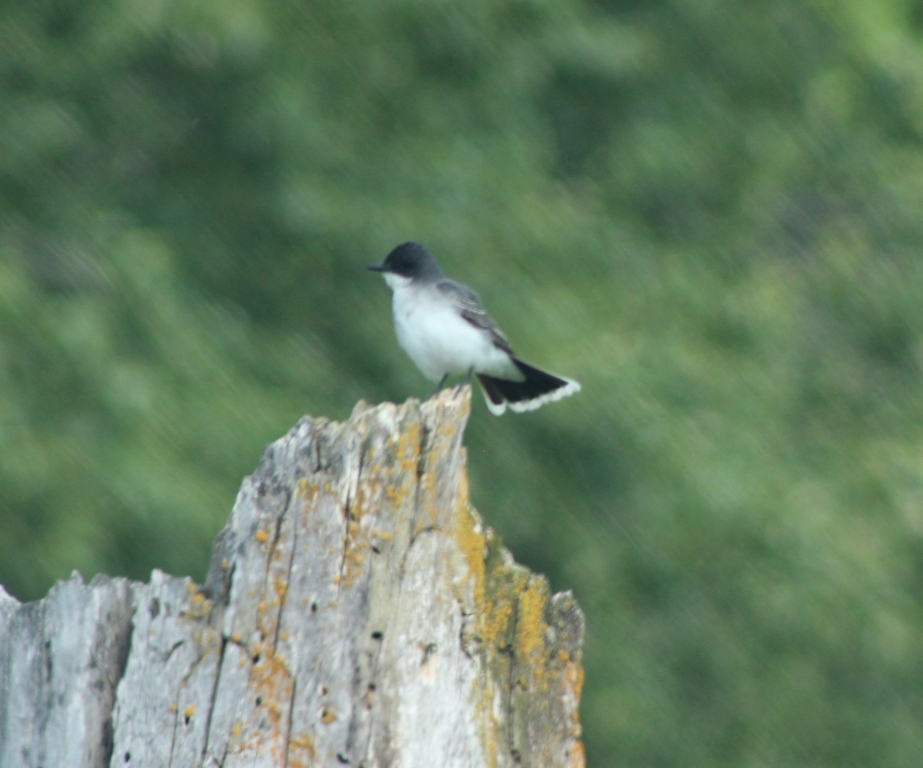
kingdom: Animalia
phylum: Chordata
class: Aves
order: Passeriformes
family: Tyrannidae
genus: Tyrannus
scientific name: Tyrannus tyrannus
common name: Eastern kingbird
